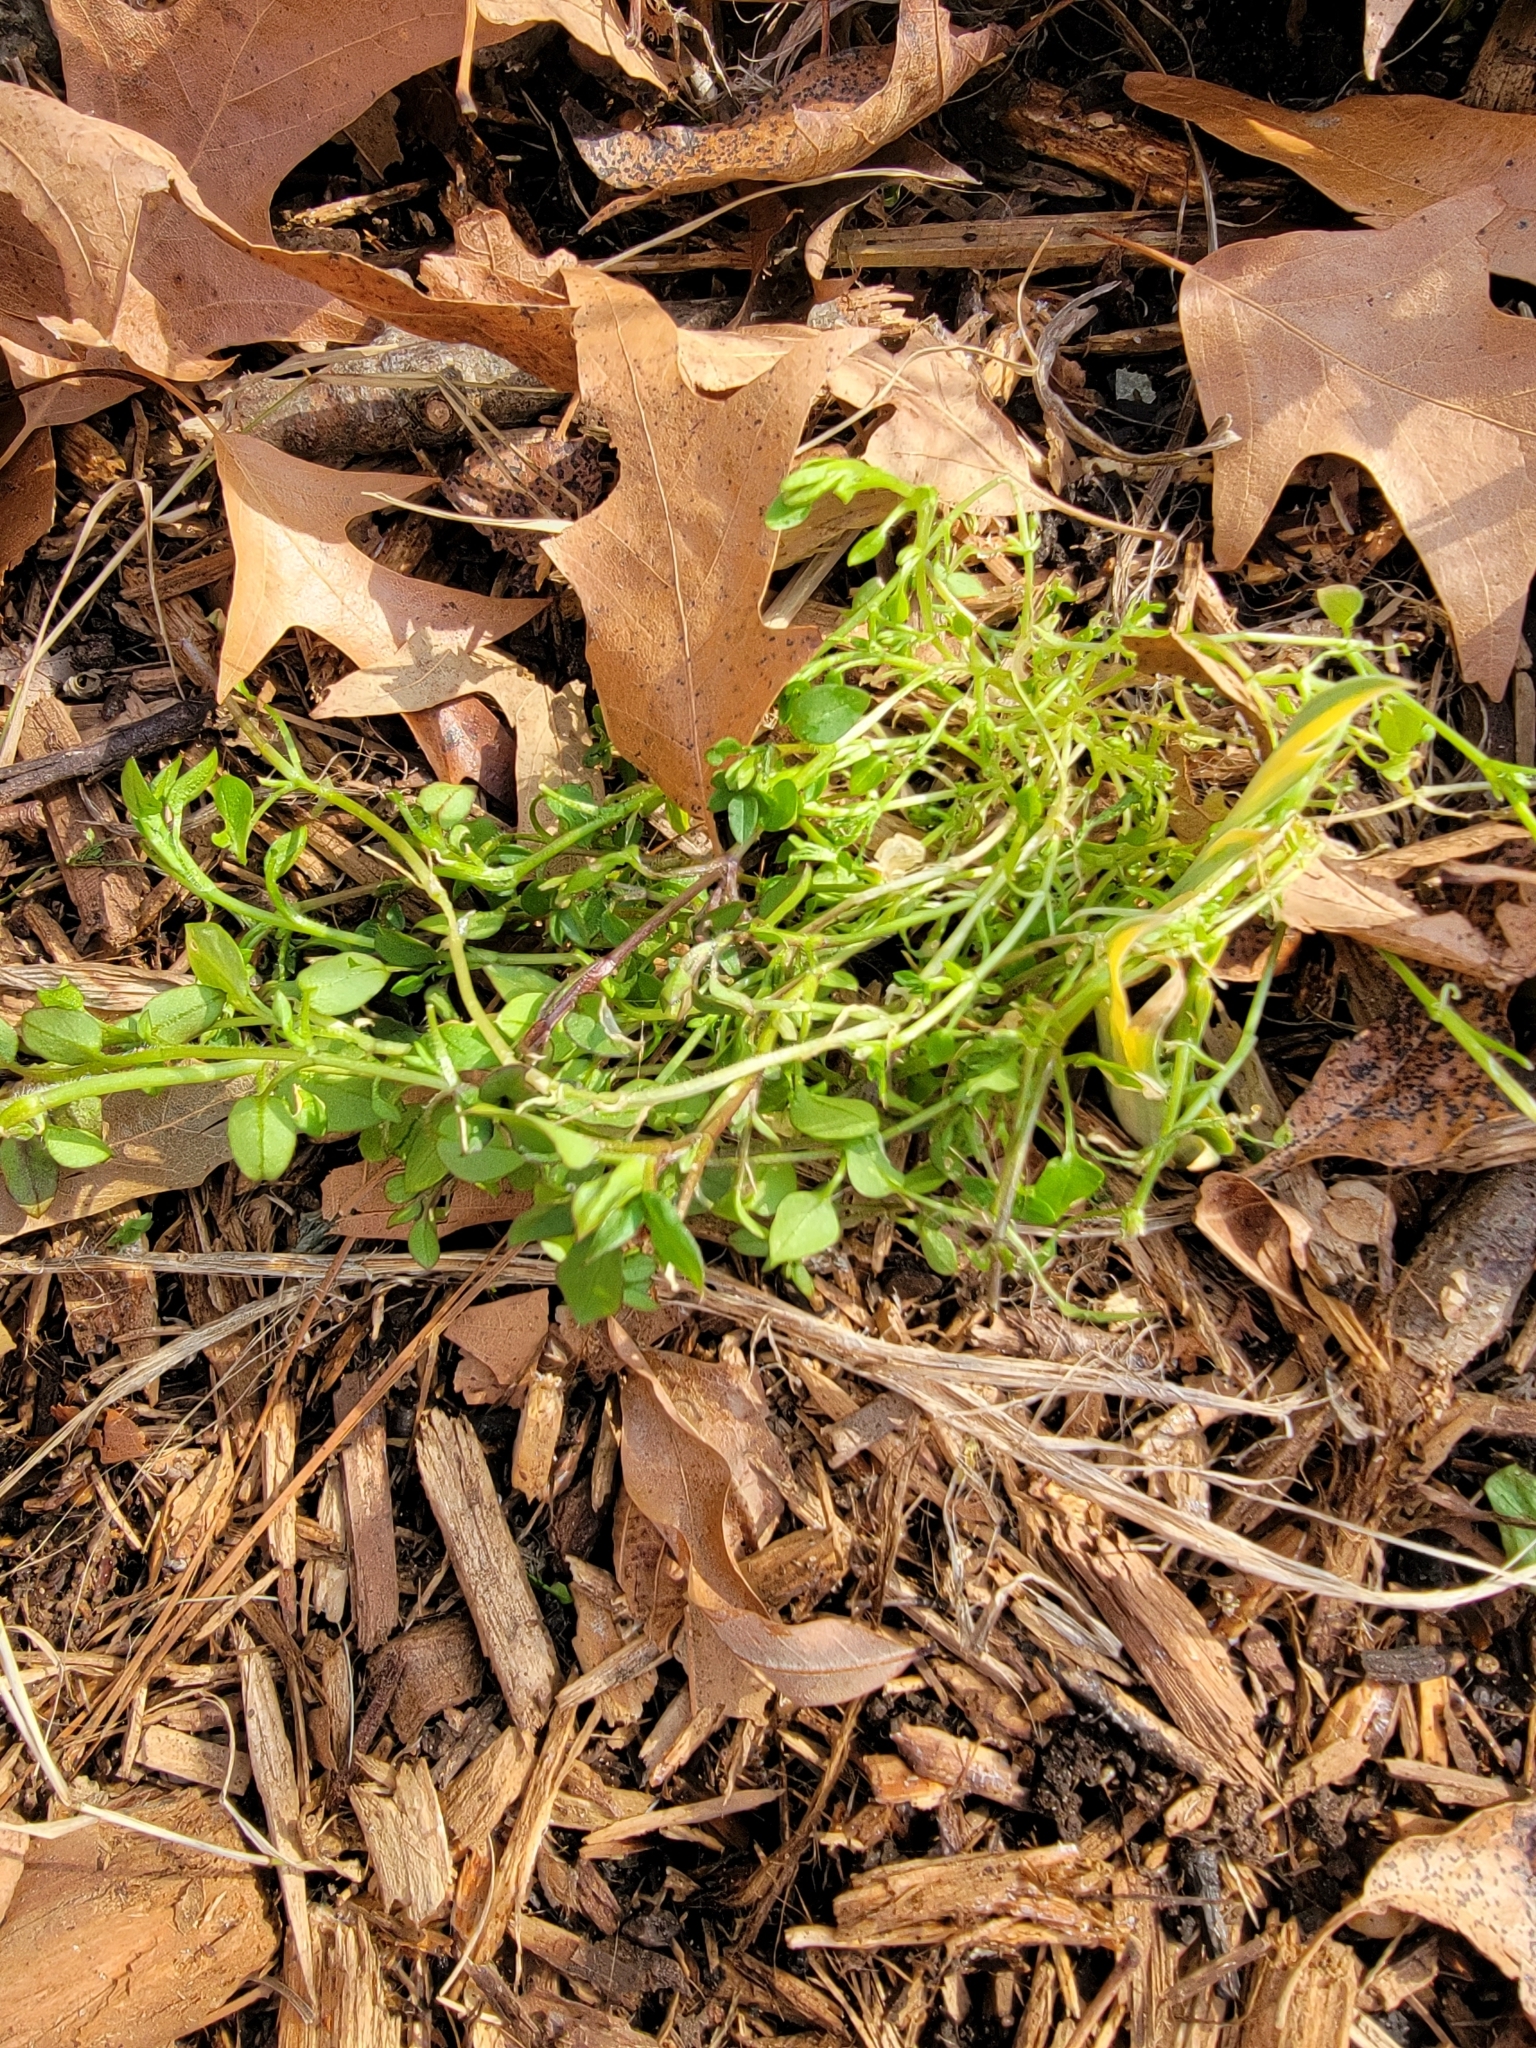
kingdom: Plantae
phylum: Tracheophyta
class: Magnoliopsida
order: Caryophyllales
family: Caryophyllaceae
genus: Stellaria
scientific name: Stellaria media
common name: Common chickweed
